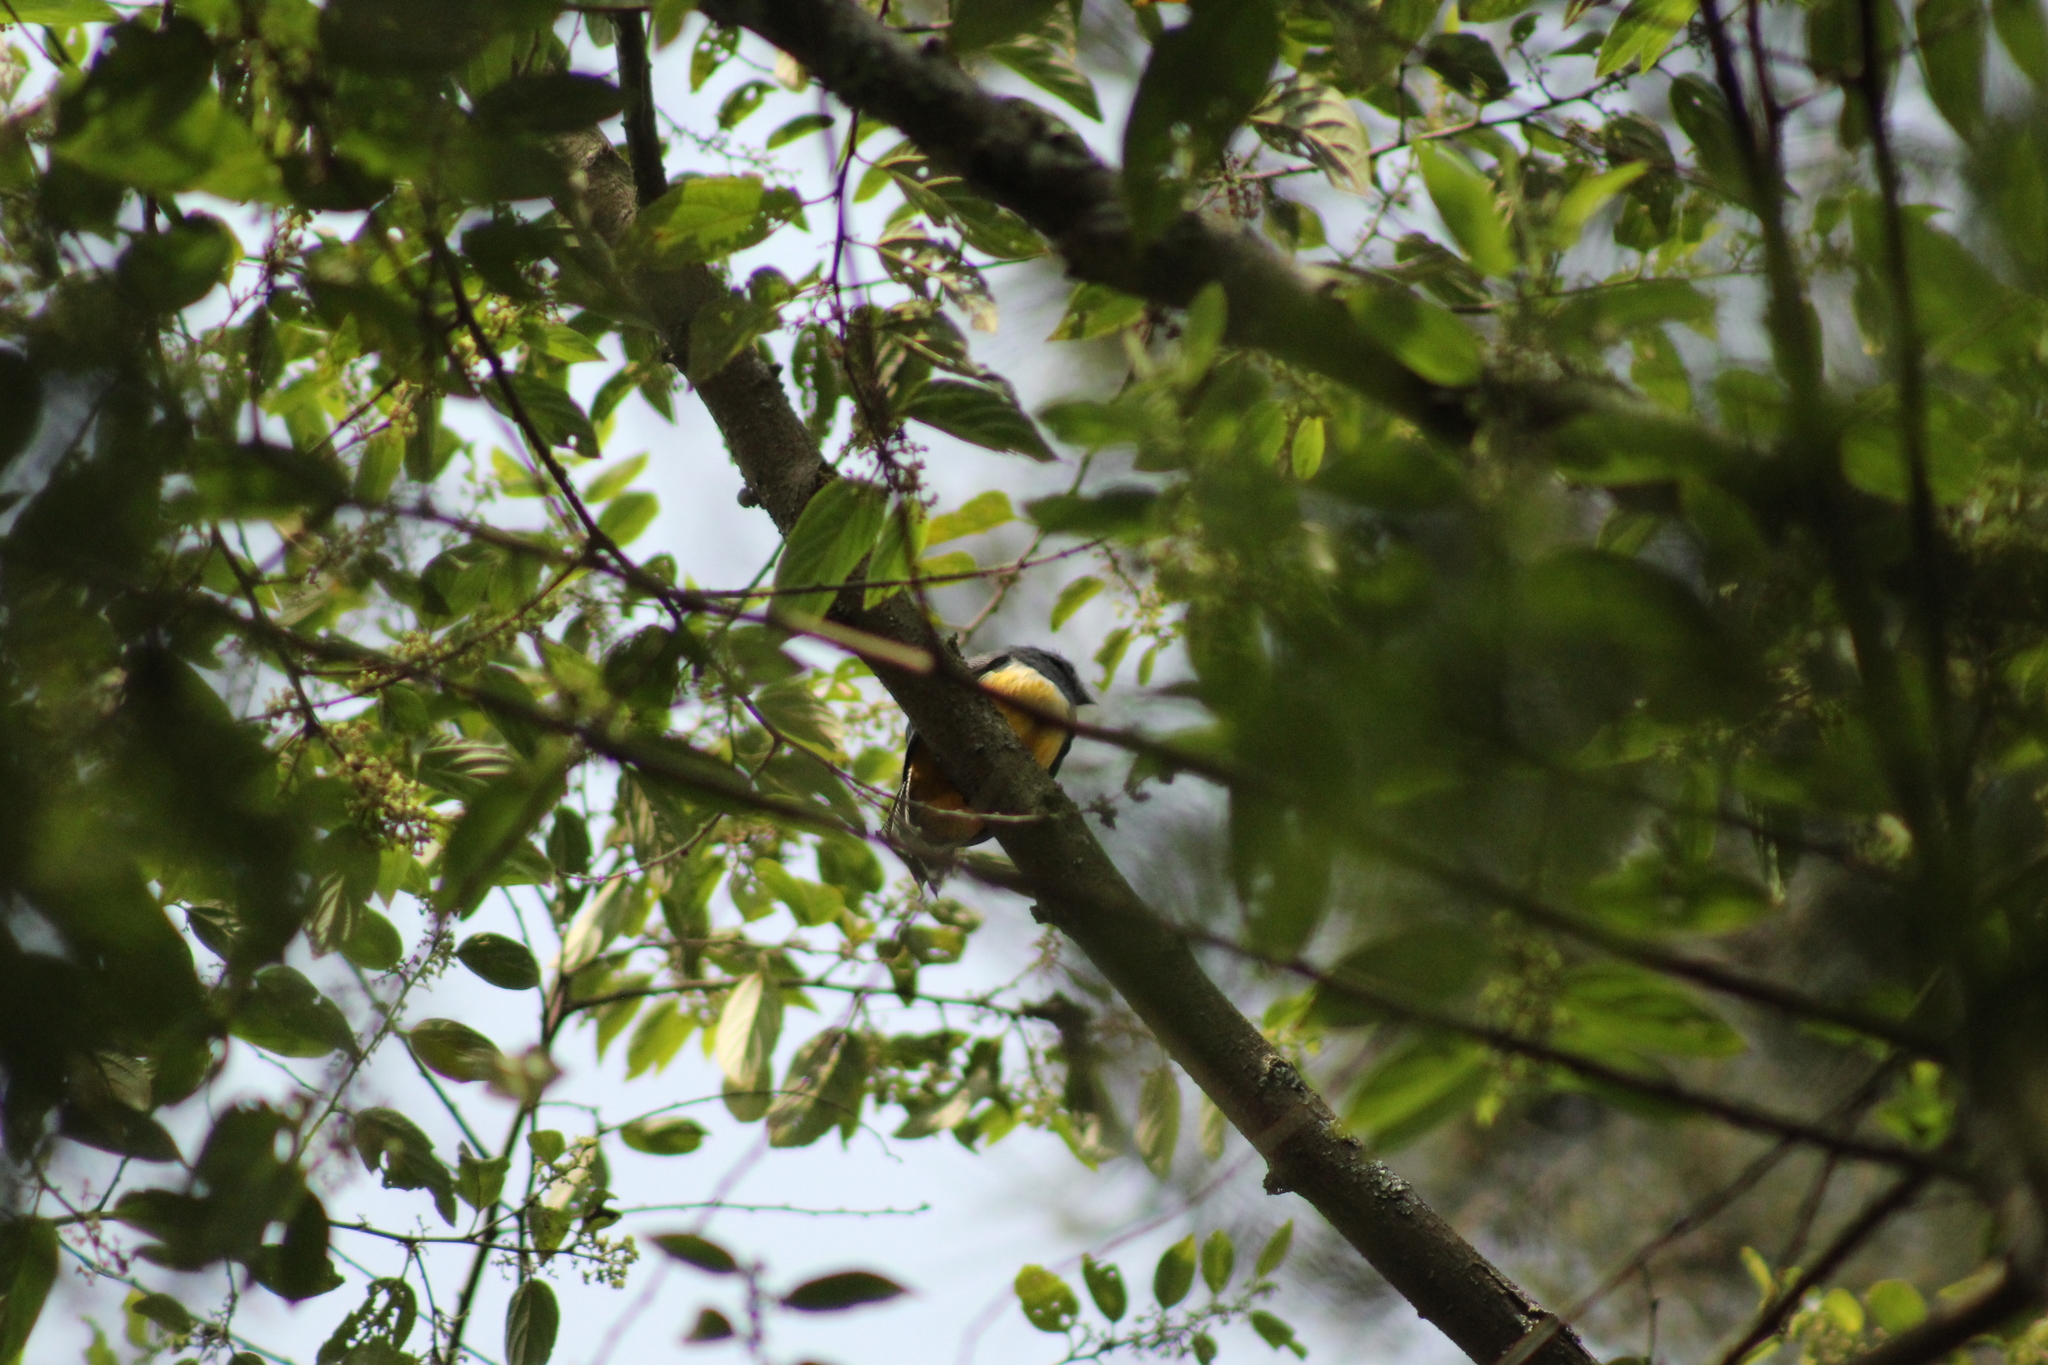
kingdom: Animalia
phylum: Chordata
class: Aves
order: Trogoniformes
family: Trogonidae
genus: Trogon
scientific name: Trogon caligatus
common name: Gartered trogon
